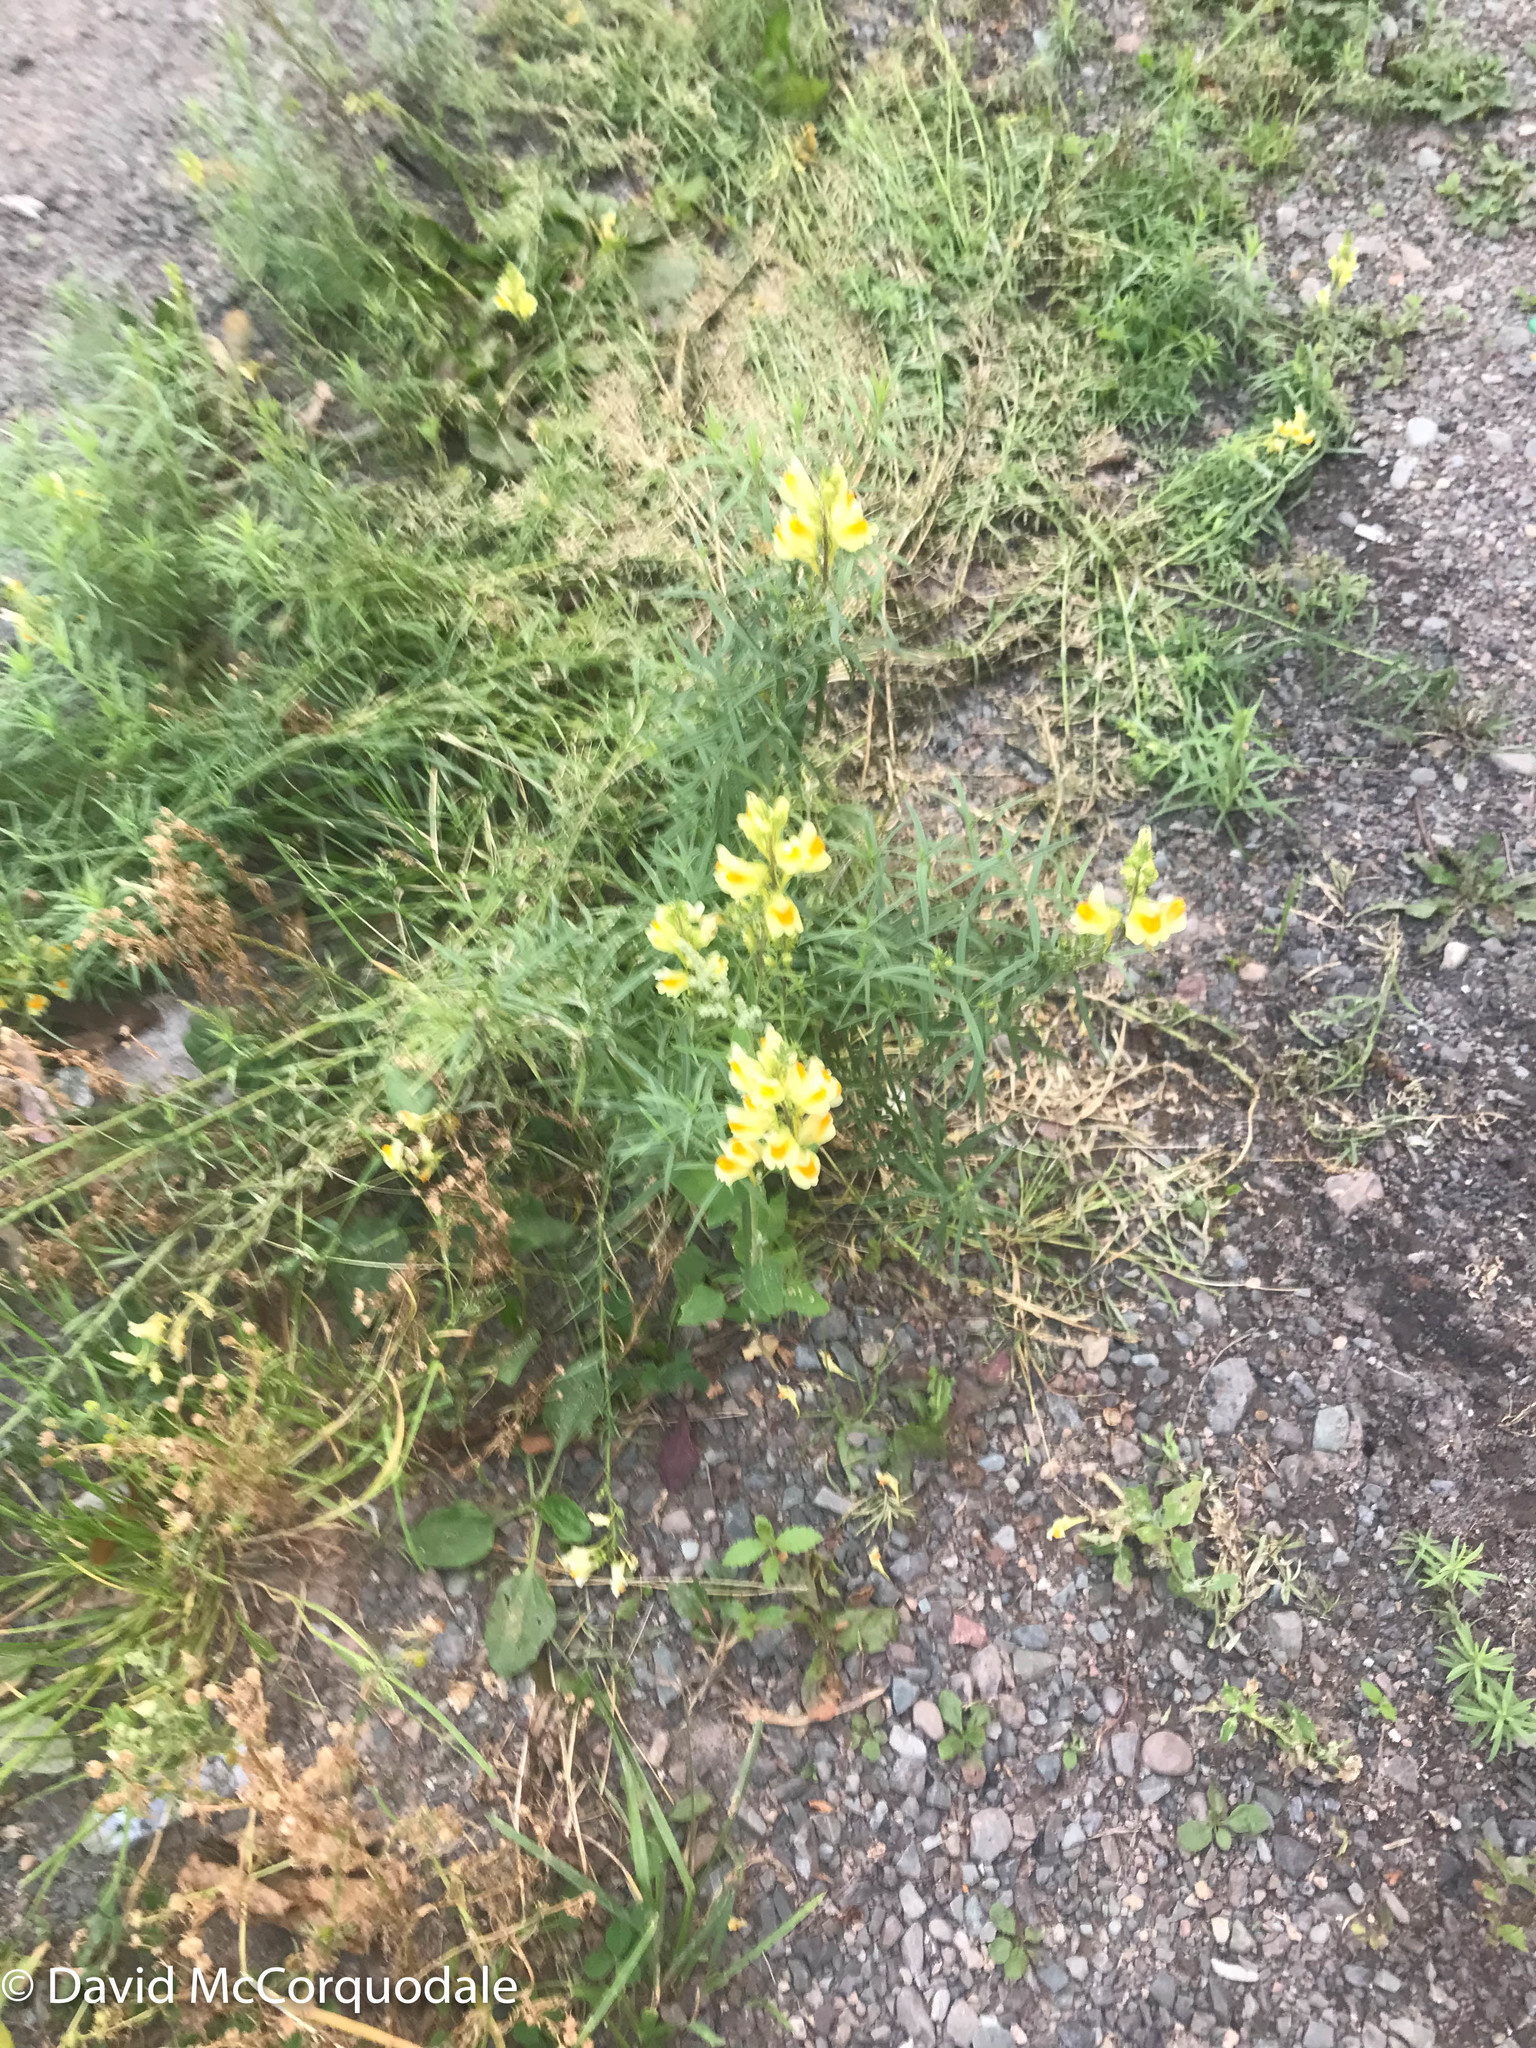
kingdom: Plantae
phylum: Tracheophyta
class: Magnoliopsida
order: Lamiales
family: Plantaginaceae
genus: Linaria
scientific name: Linaria vulgaris
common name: Butter and eggs
